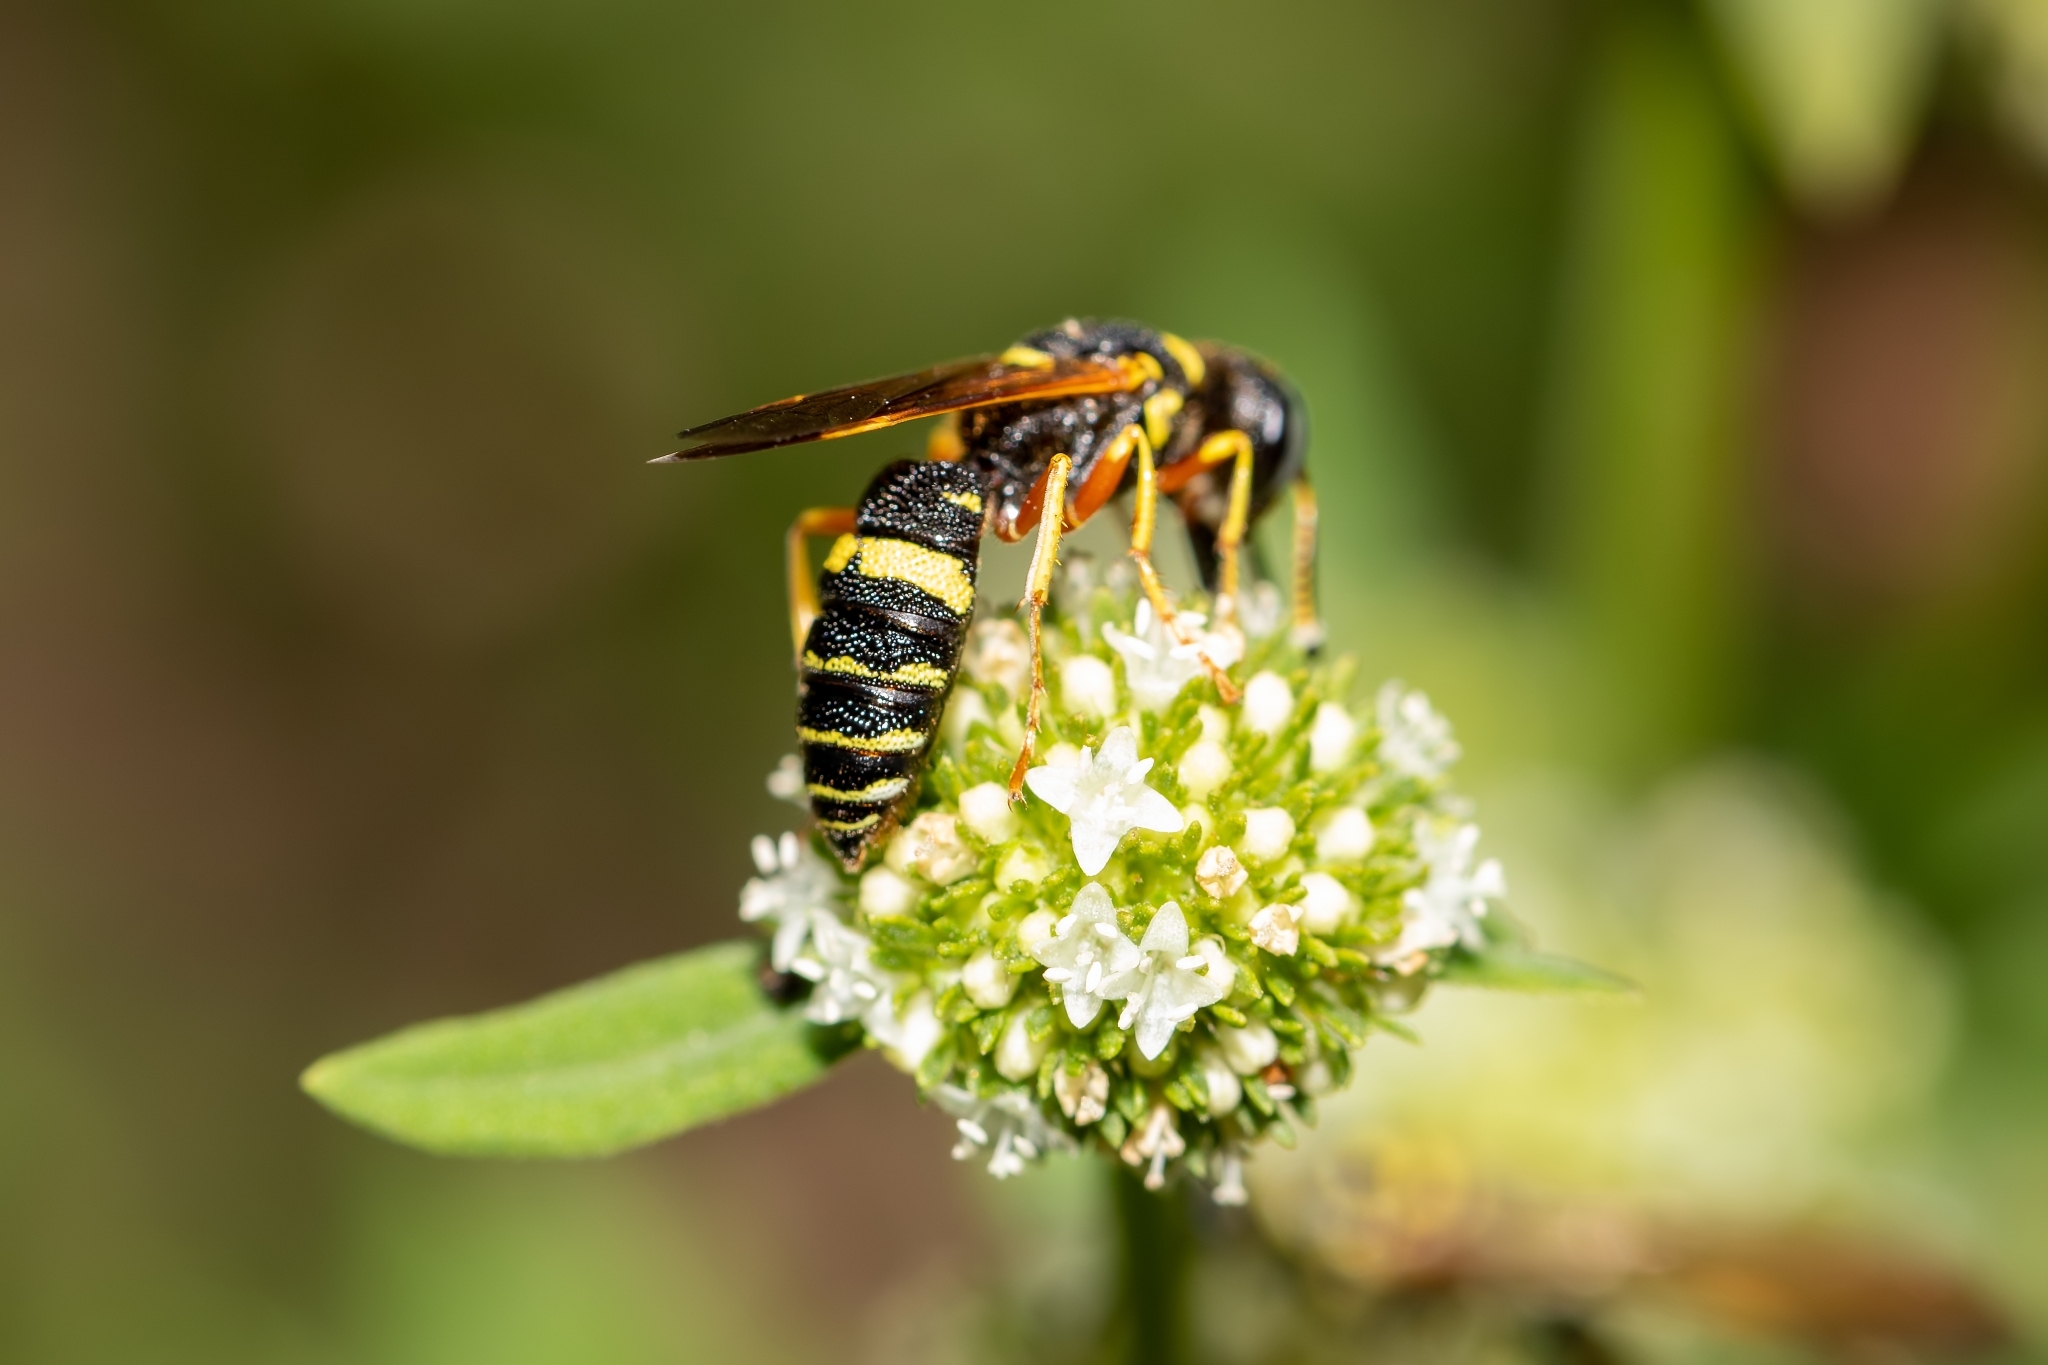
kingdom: Animalia
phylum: Arthropoda
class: Insecta
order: Hymenoptera
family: Crabronidae
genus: Philanthus
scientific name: Philanthus sanbornii
